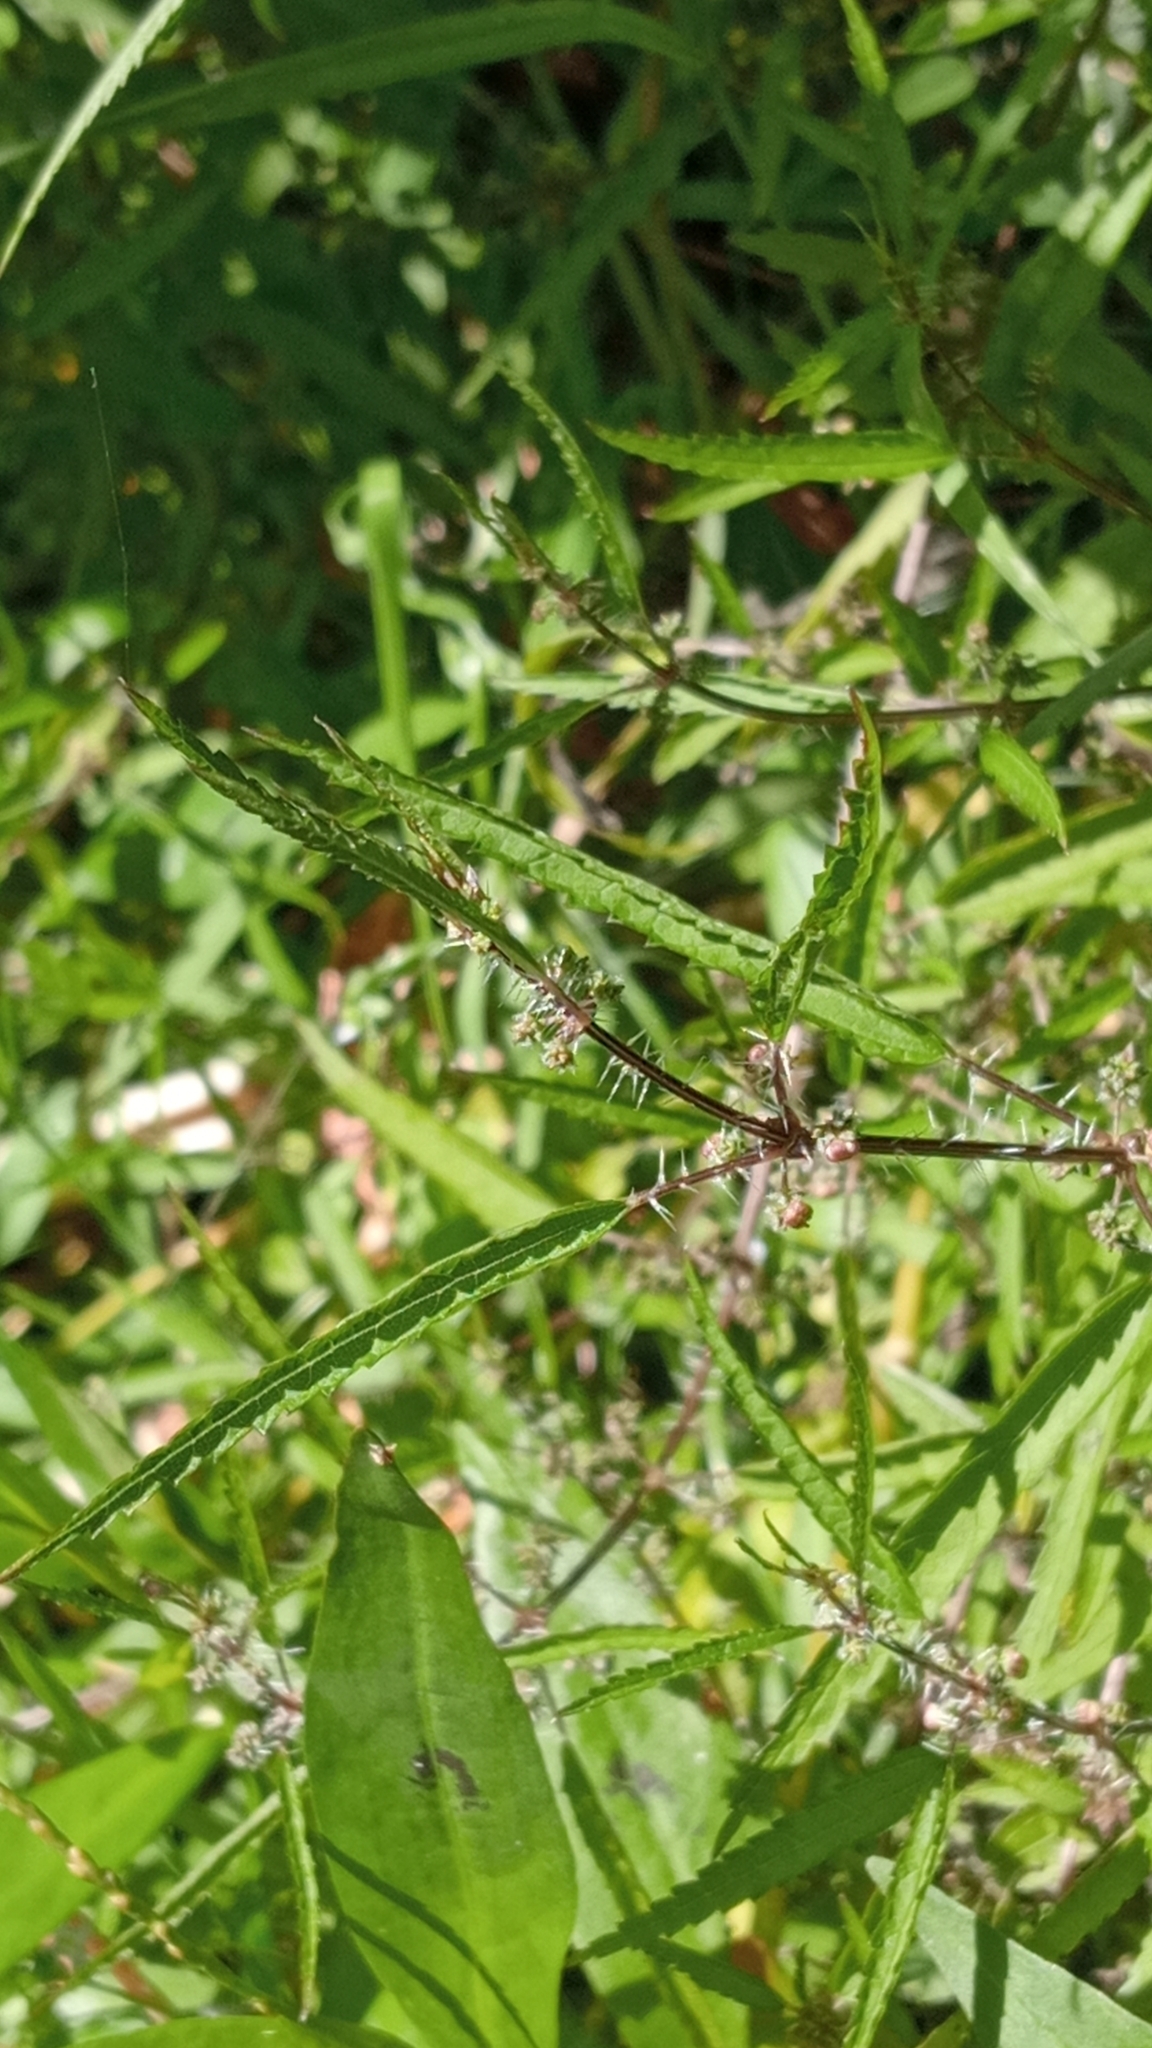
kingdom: Plantae
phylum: Tracheophyta
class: Magnoliopsida
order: Rosales
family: Urticaceae
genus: Urtica
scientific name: Urtica perconfusa
